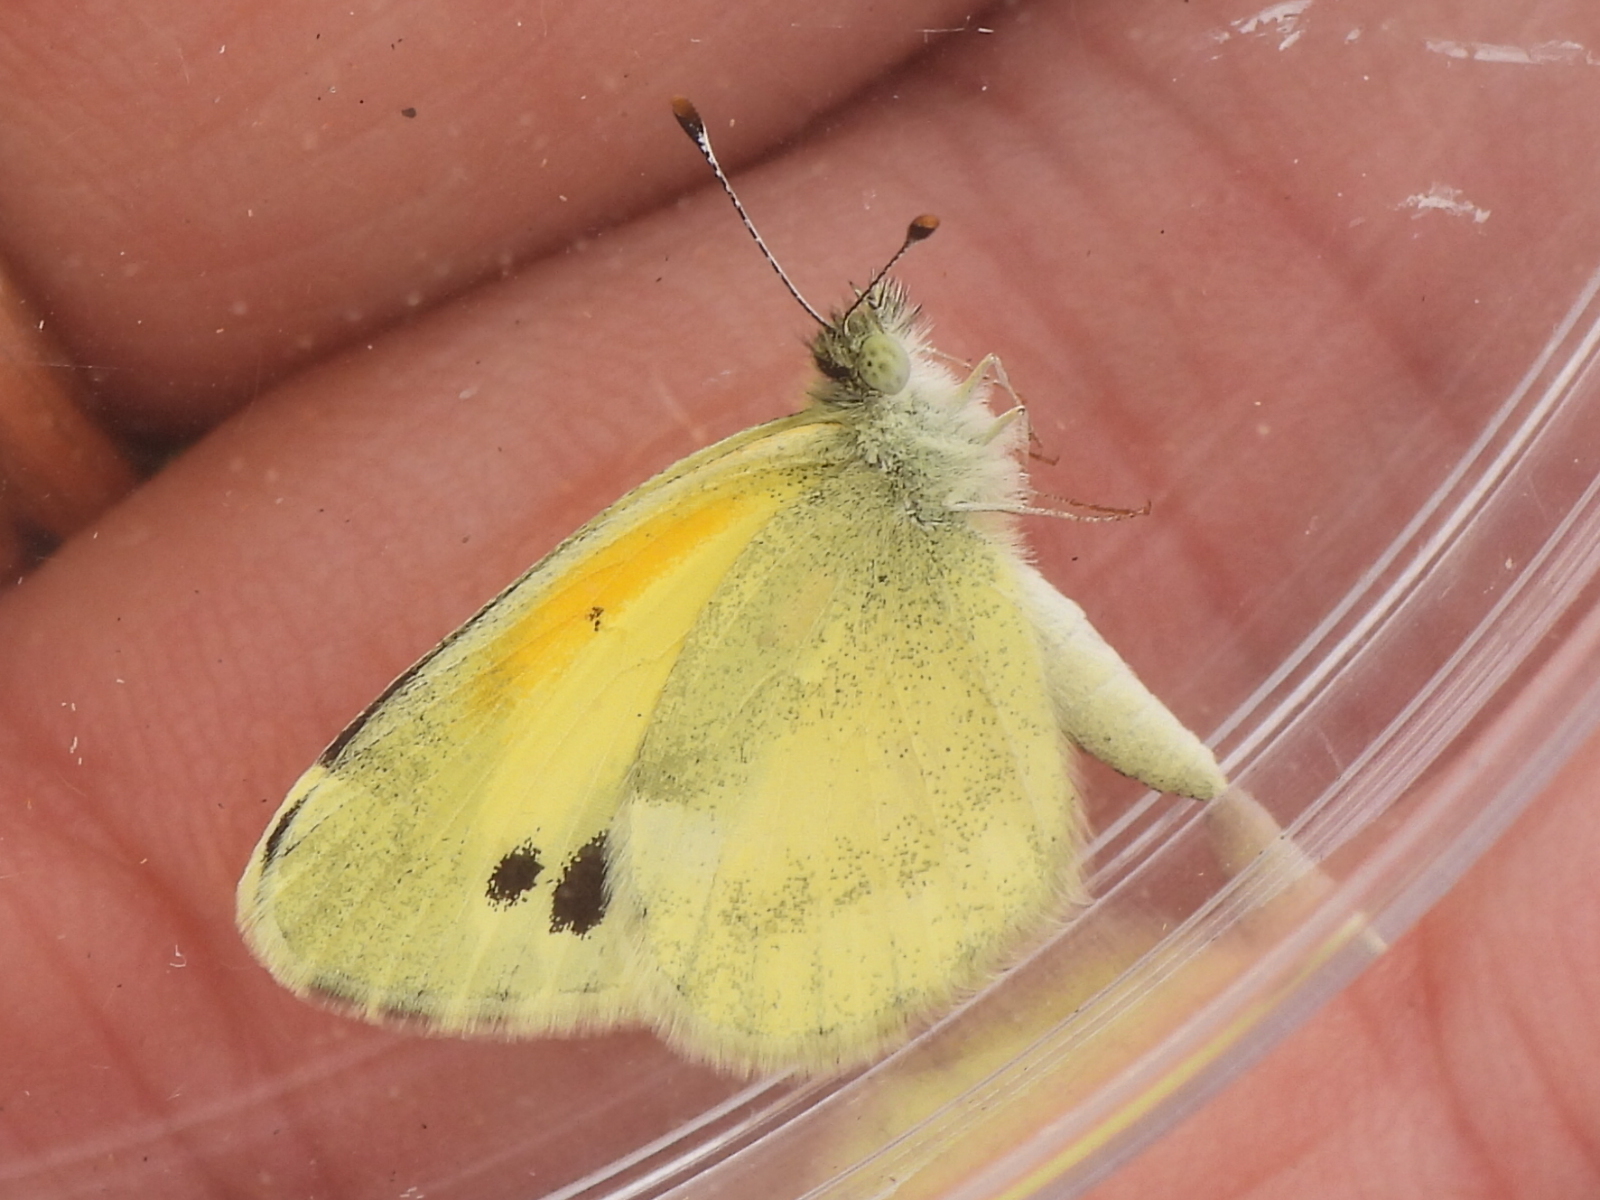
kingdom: Animalia
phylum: Arthropoda
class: Insecta
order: Lepidoptera
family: Pieridae
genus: Nathalis
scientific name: Nathalis iole
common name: Dainty sulphur
